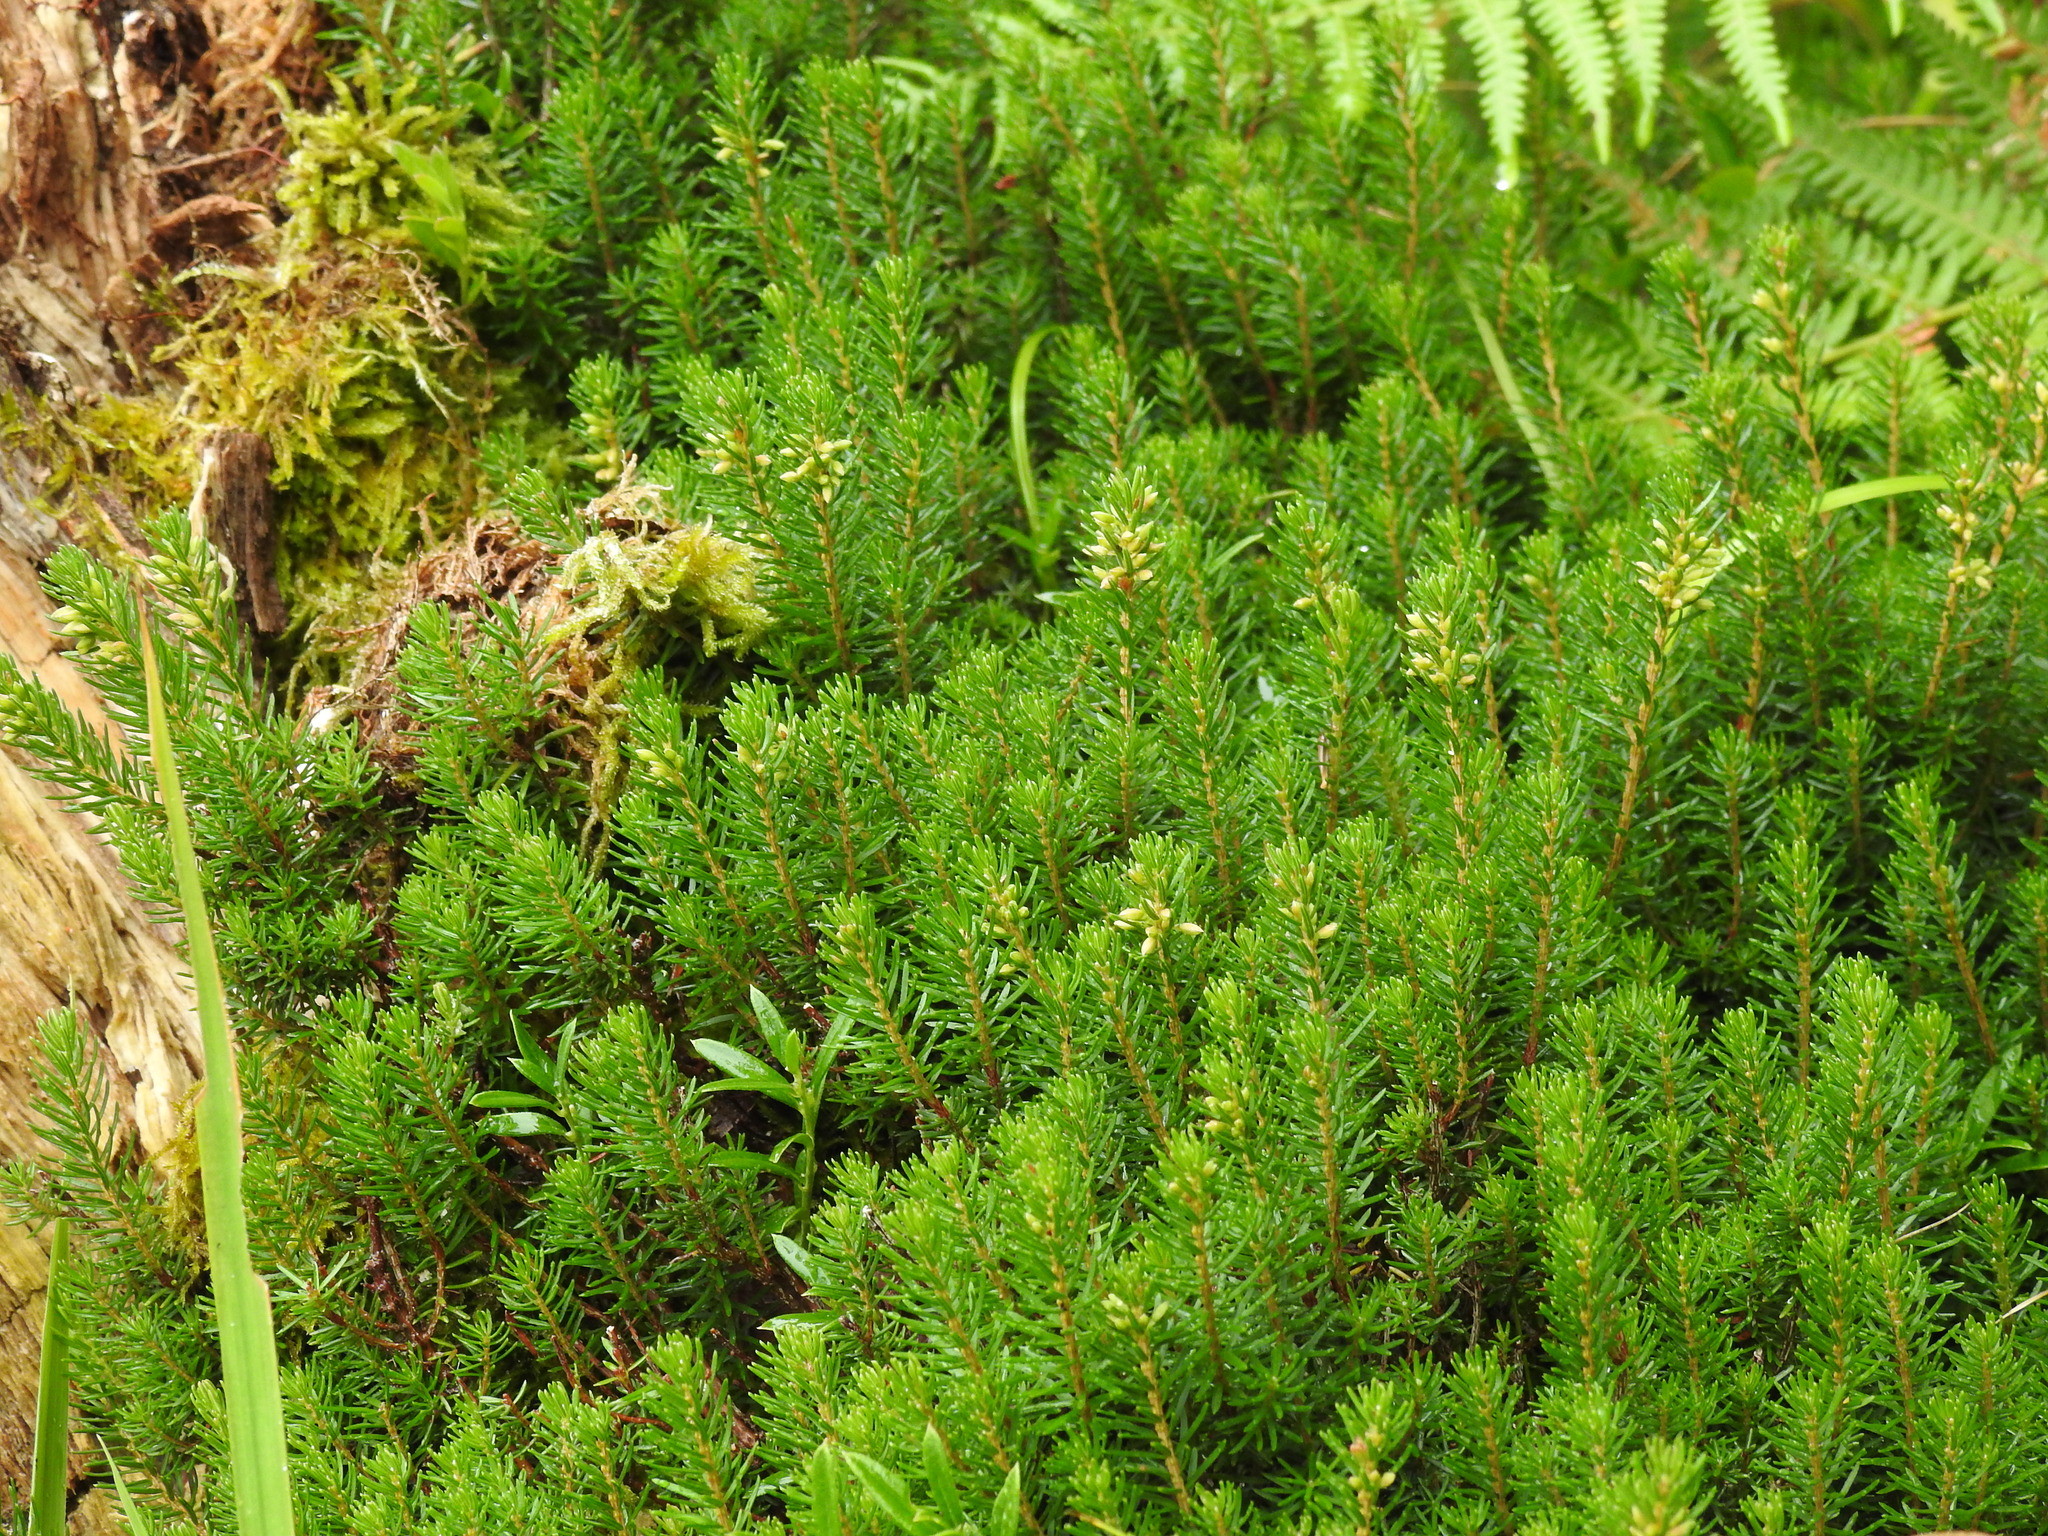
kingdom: Plantae
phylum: Tracheophyta
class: Magnoliopsida
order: Ericales
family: Ericaceae
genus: Erica
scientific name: Erica carnea
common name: Winter heath
